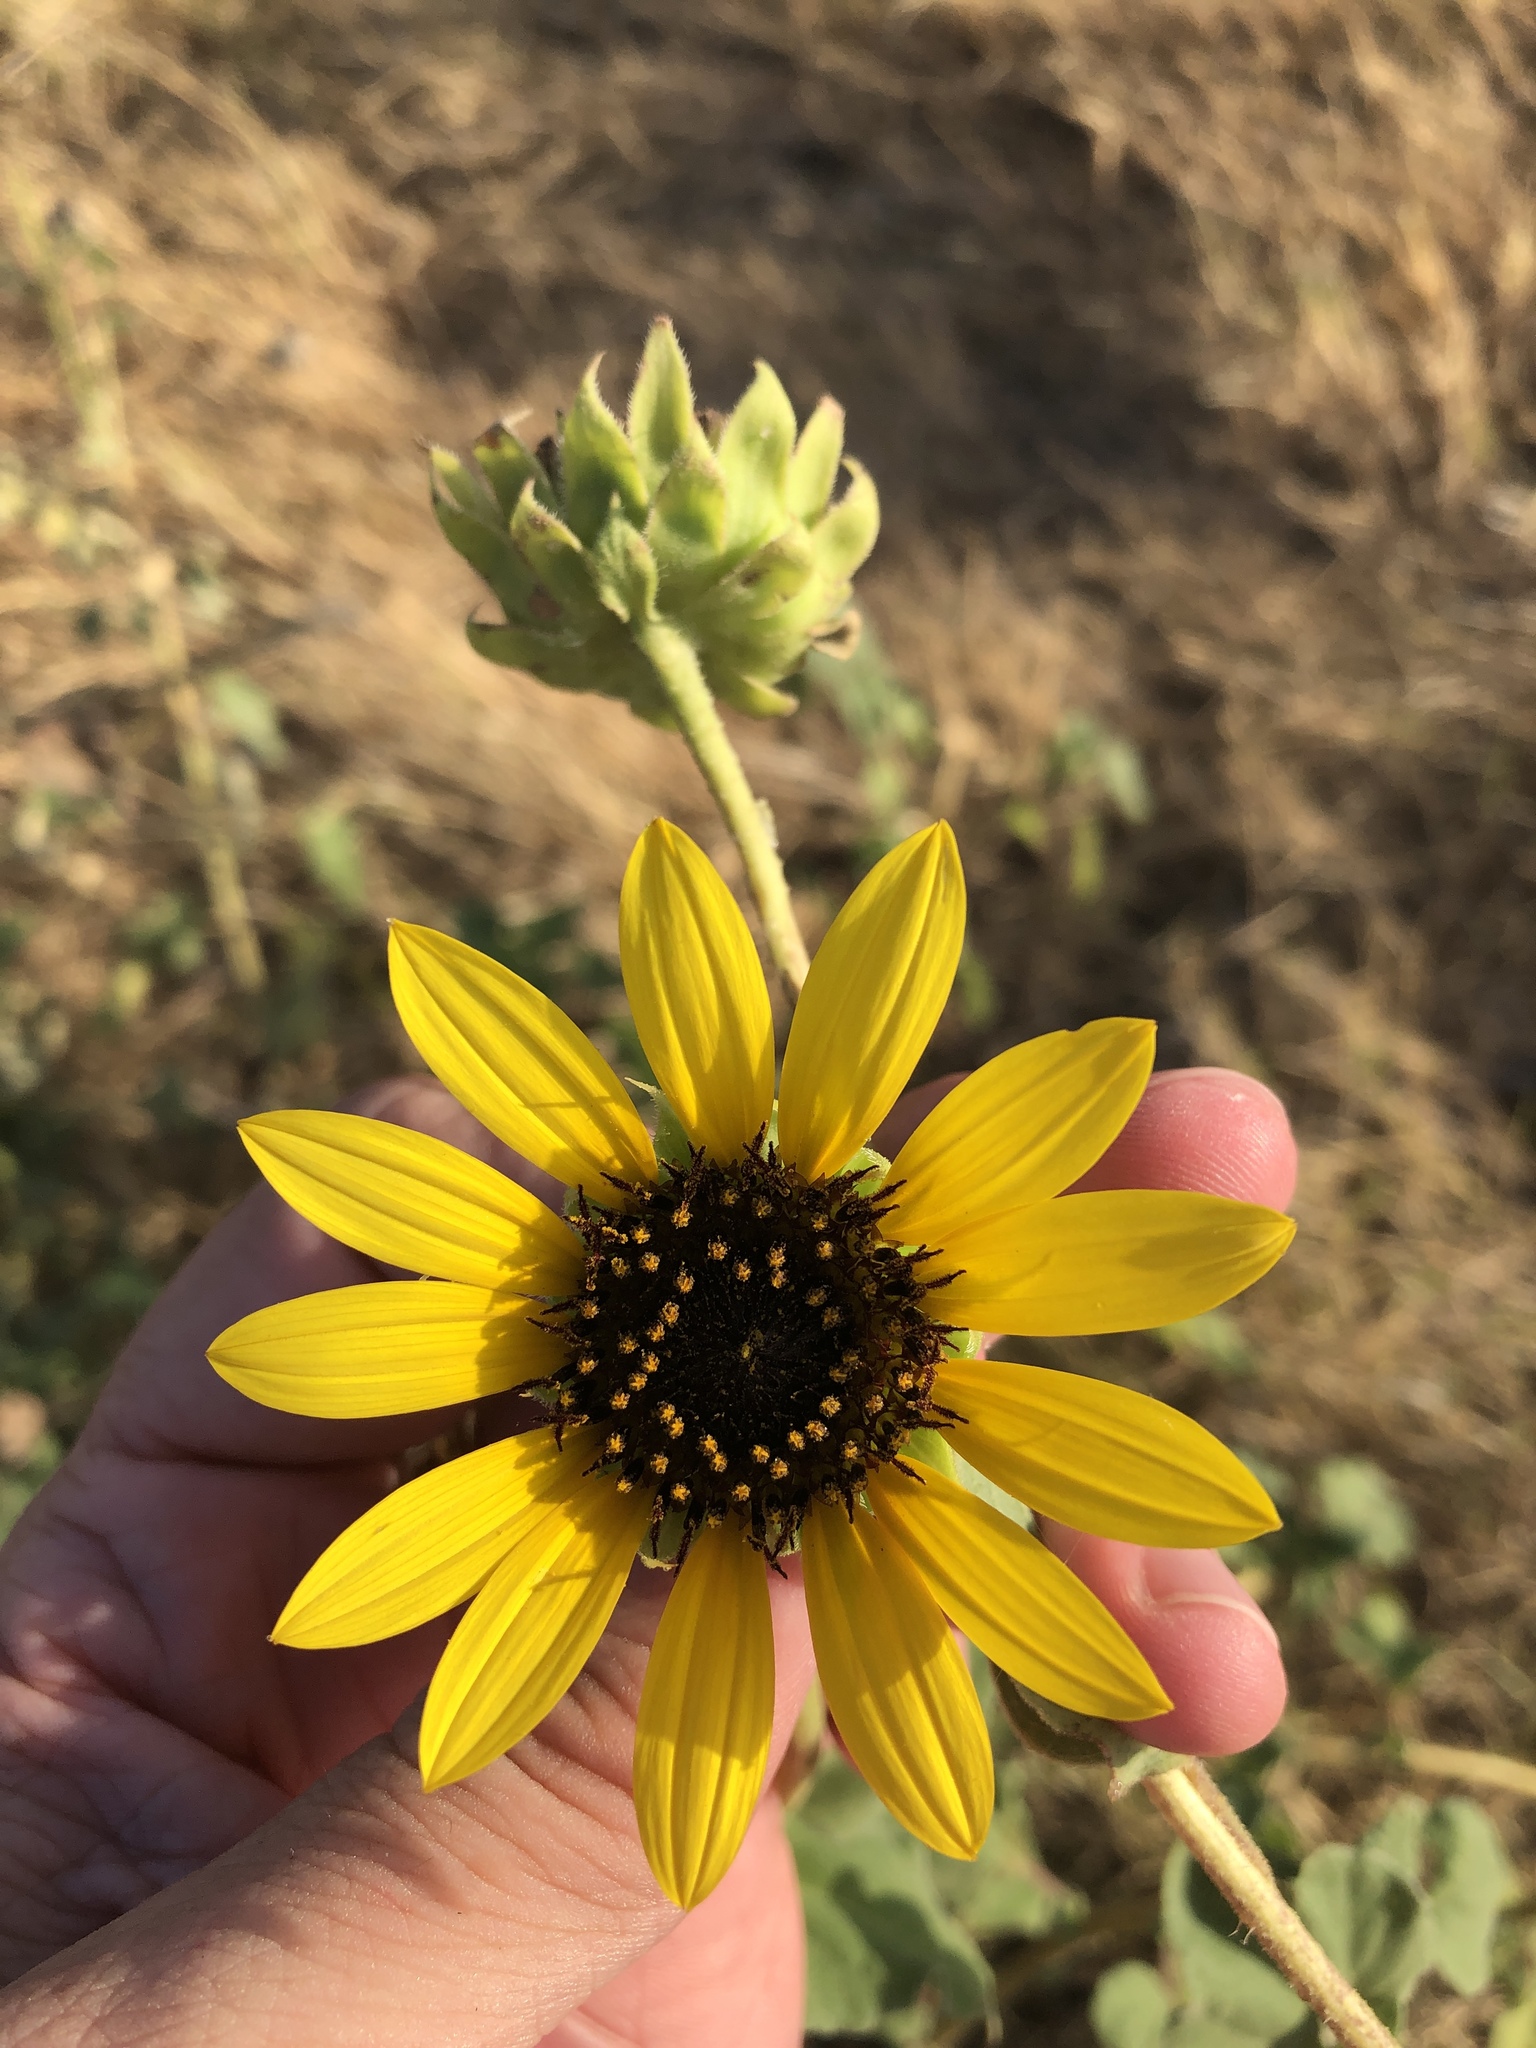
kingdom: Plantae
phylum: Tracheophyta
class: Magnoliopsida
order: Asterales
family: Asteraceae
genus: Helianthus
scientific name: Helianthus annuus
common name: Sunflower
